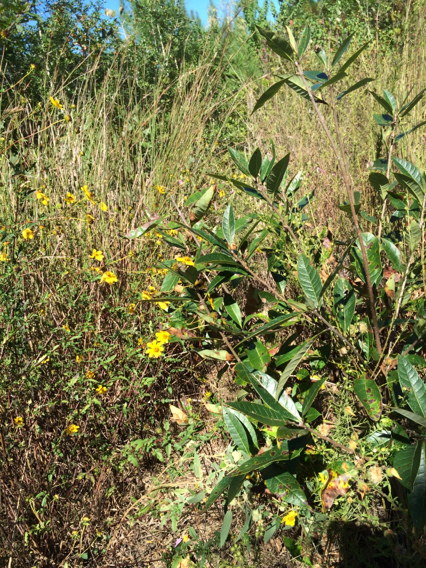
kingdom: Plantae
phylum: Tracheophyta
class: Magnoliopsida
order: Laurales
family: Lauraceae
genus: Persea
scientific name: Persea palustris
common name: Swampbay
